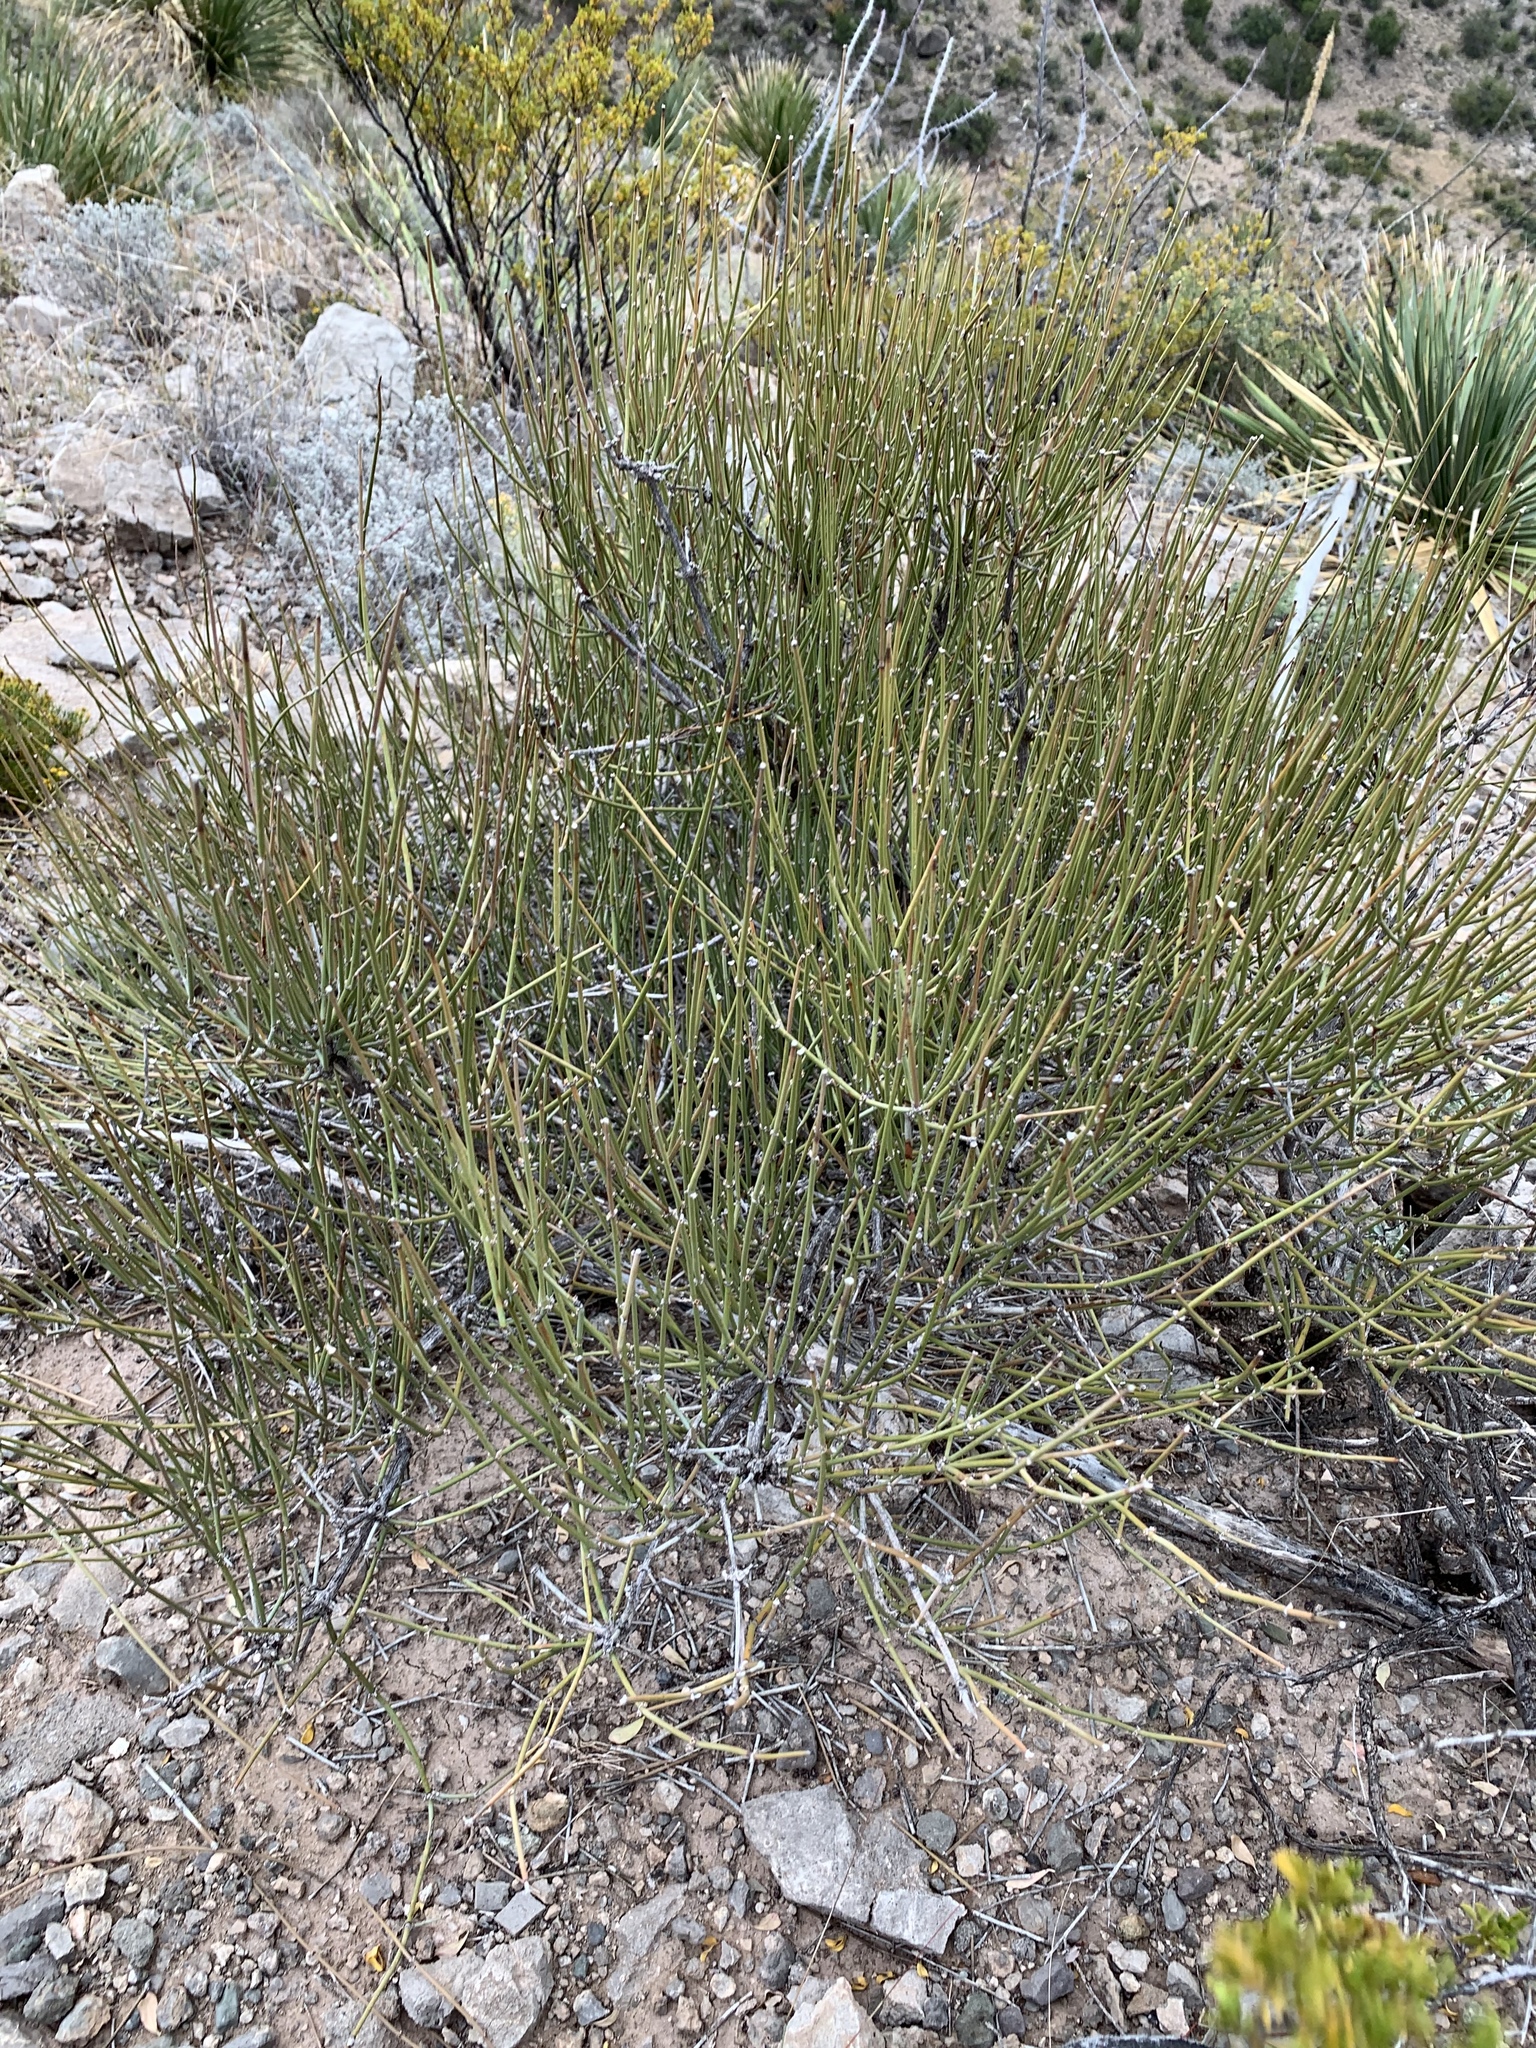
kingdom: Plantae
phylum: Tracheophyta
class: Gnetopsida
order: Ephedrales
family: Ephedraceae
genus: Ephedra
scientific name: Ephedra trifurca
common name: Mexican-tea
